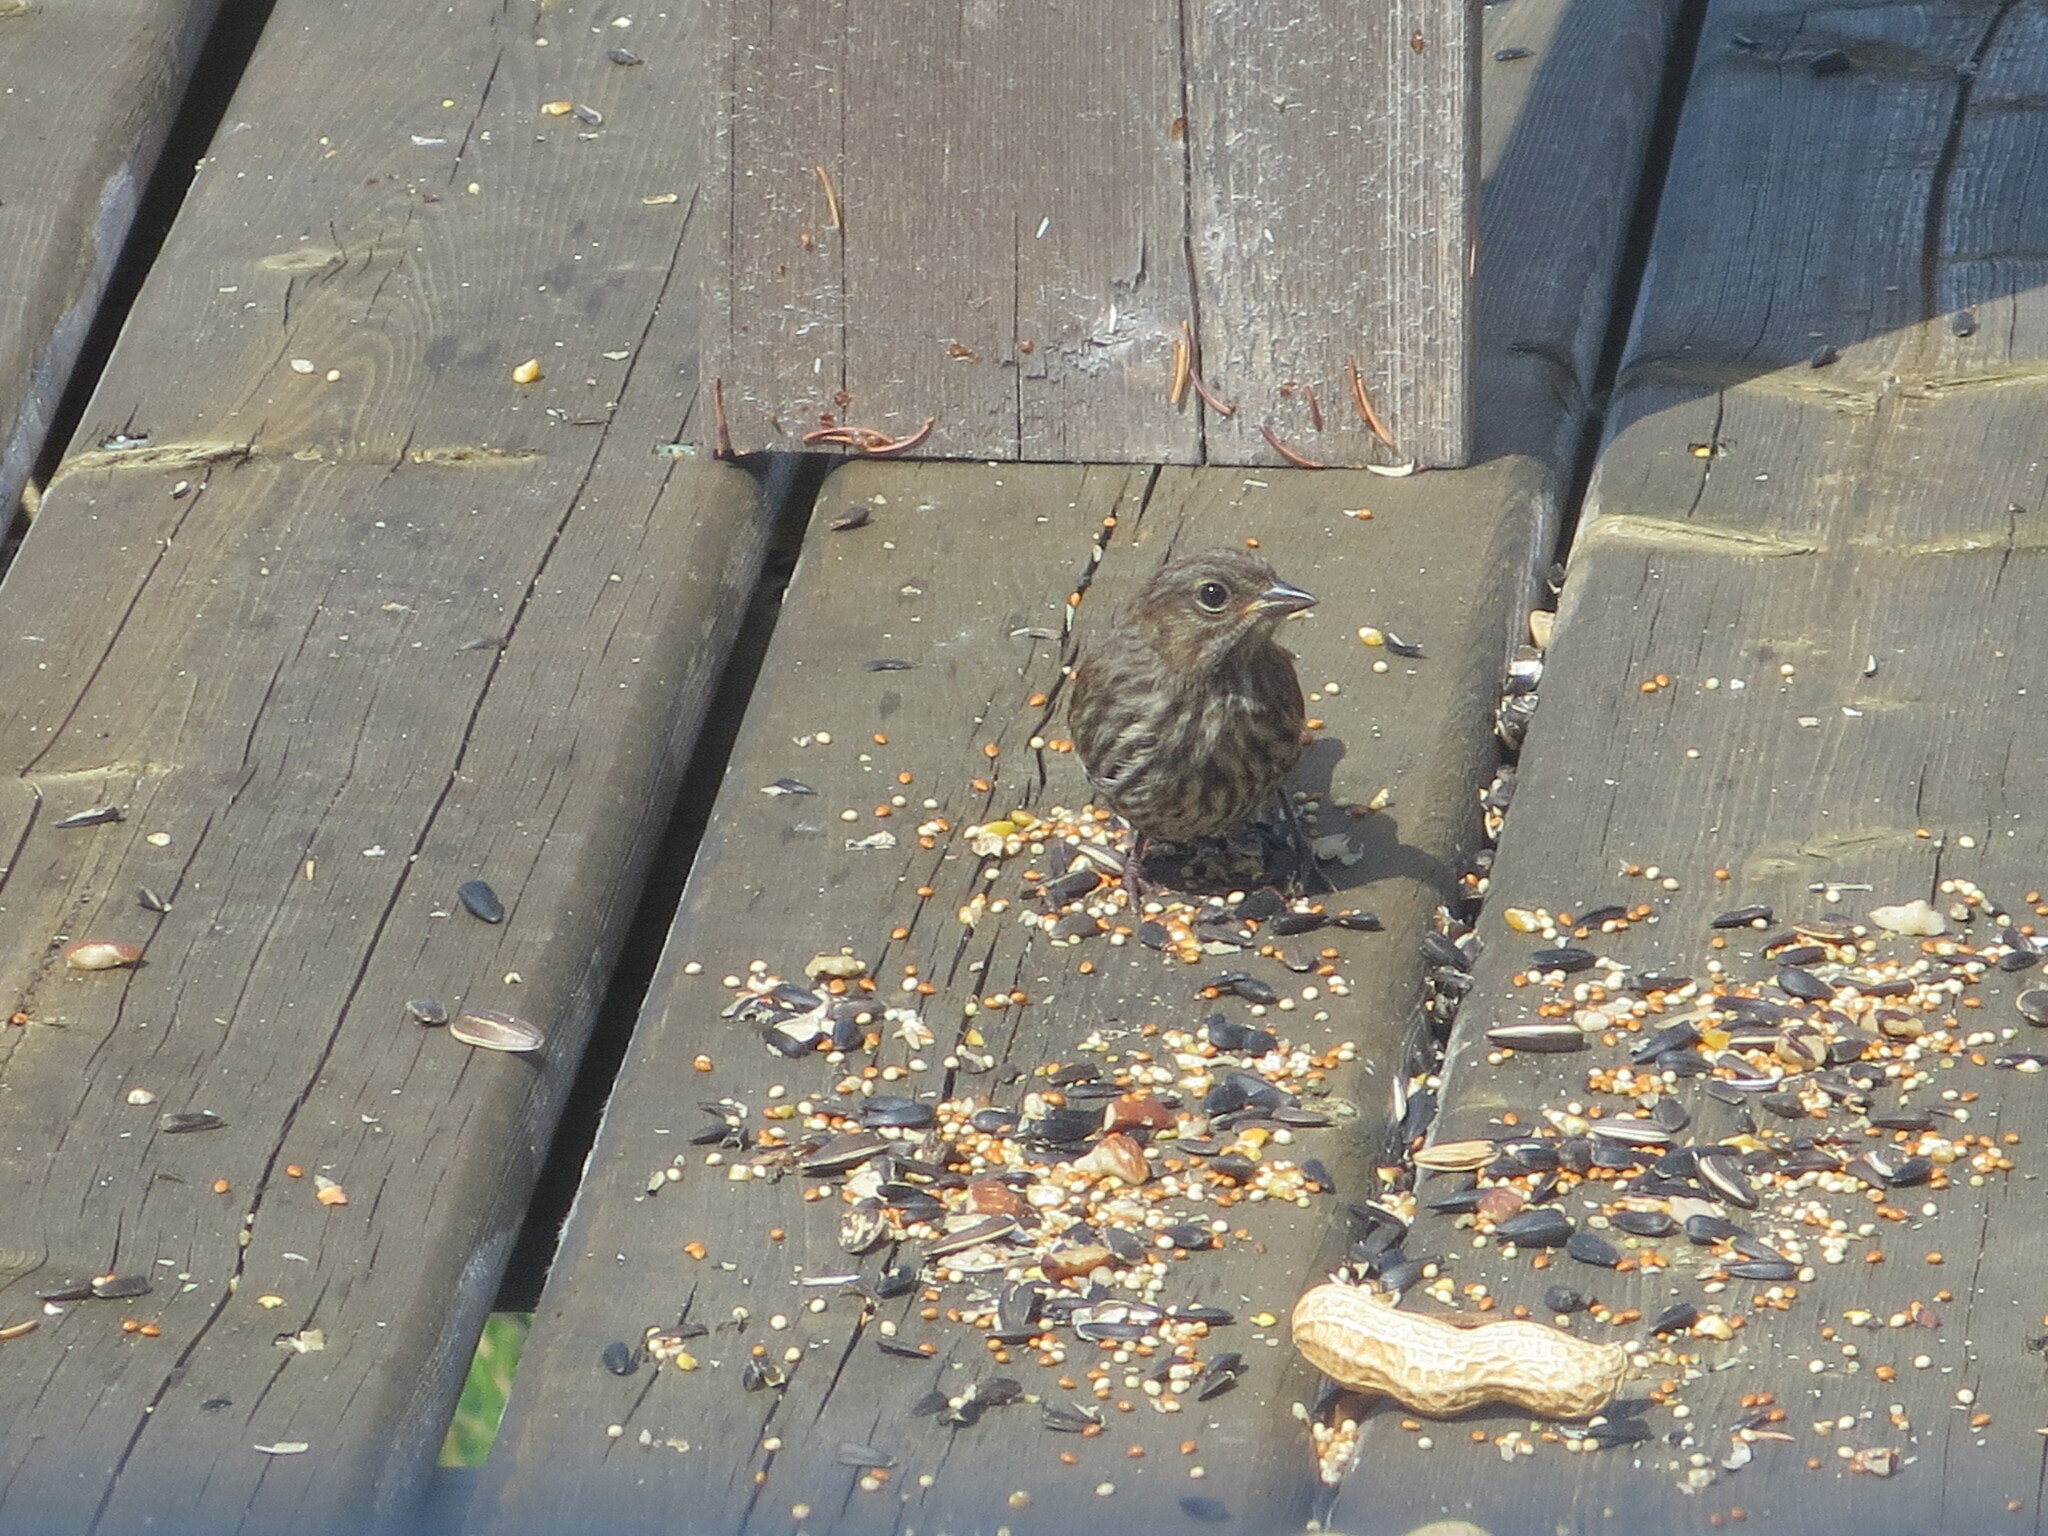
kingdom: Animalia
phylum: Chordata
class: Aves
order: Passeriformes
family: Passerellidae
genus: Melospiza
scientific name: Melospiza melodia
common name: Song sparrow
